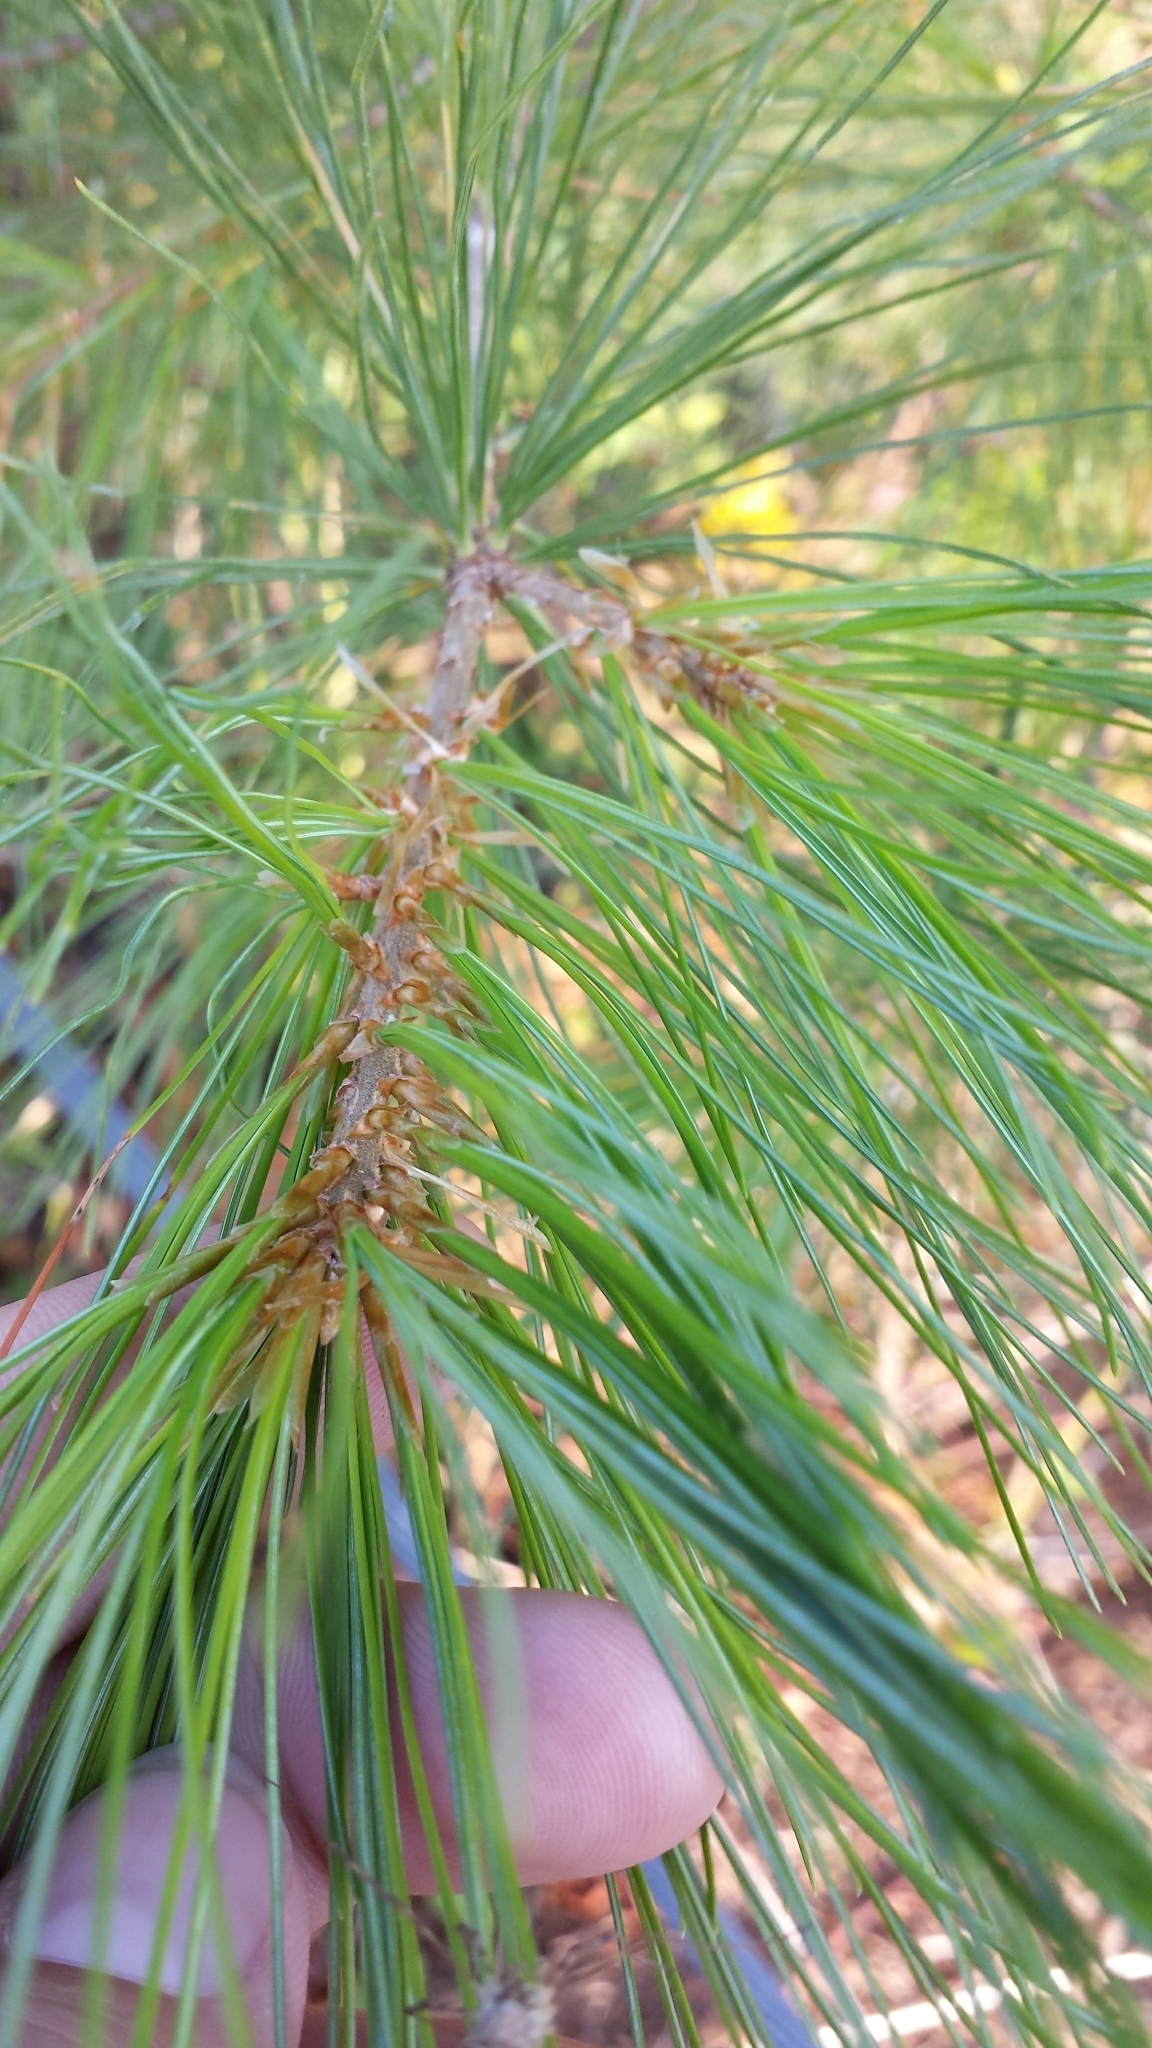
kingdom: Plantae
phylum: Tracheophyta
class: Pinopsida
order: Pinales
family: Pinaceae
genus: Pinus
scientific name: Pinus strobus
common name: Weymouth pine
